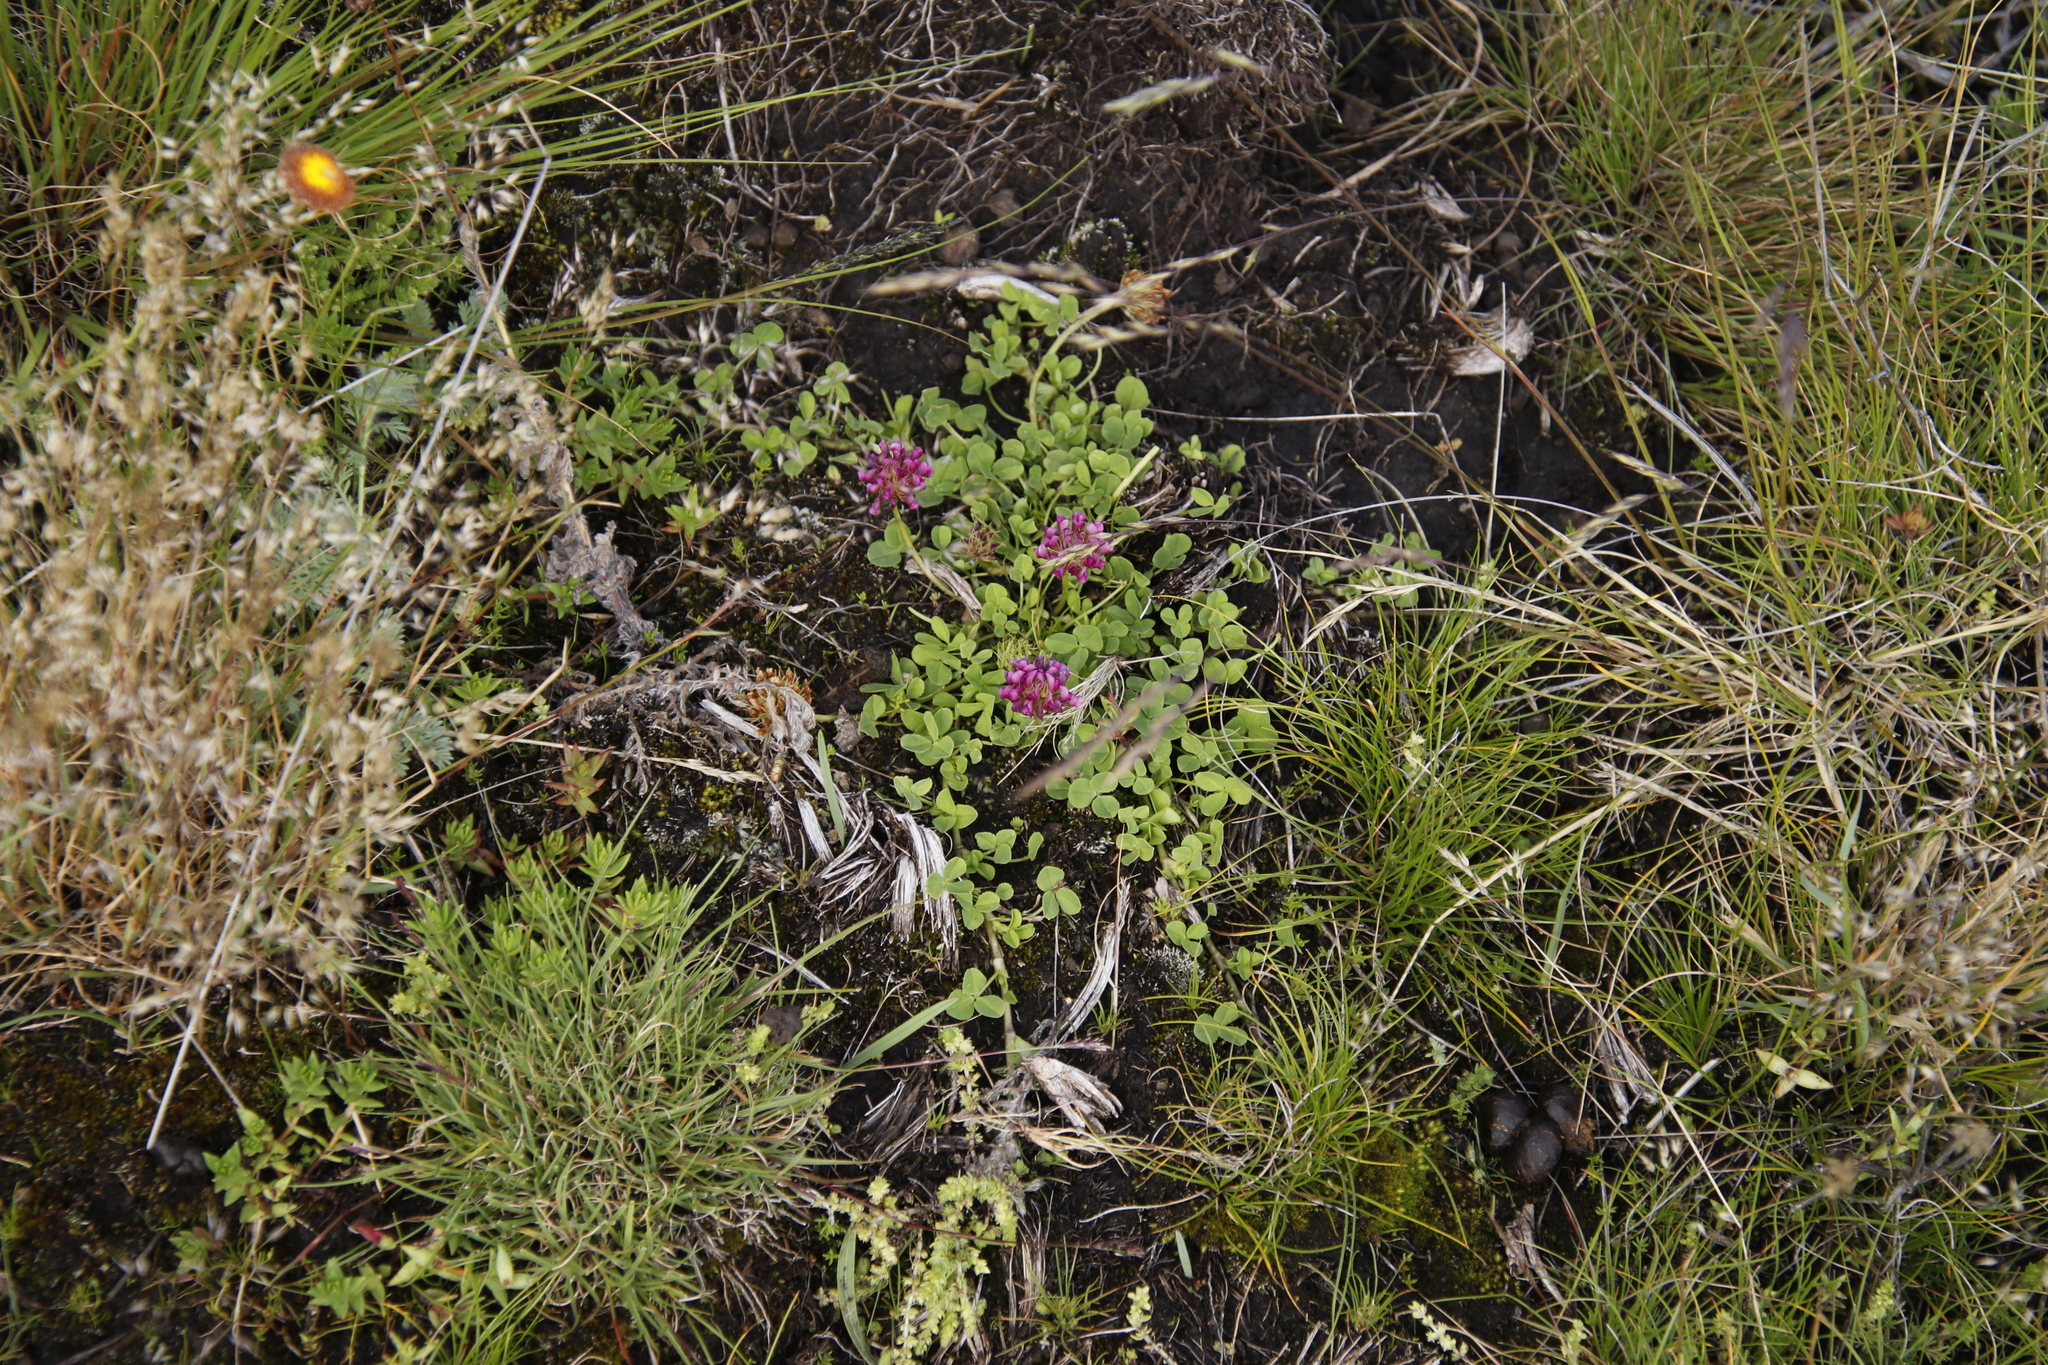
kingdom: Plantae
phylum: Tracheophyta
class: Magnoliopsida
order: Fabales
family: Fabaceae
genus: Trifolium
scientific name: Trifolium burchellianum
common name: Burchell's clover
